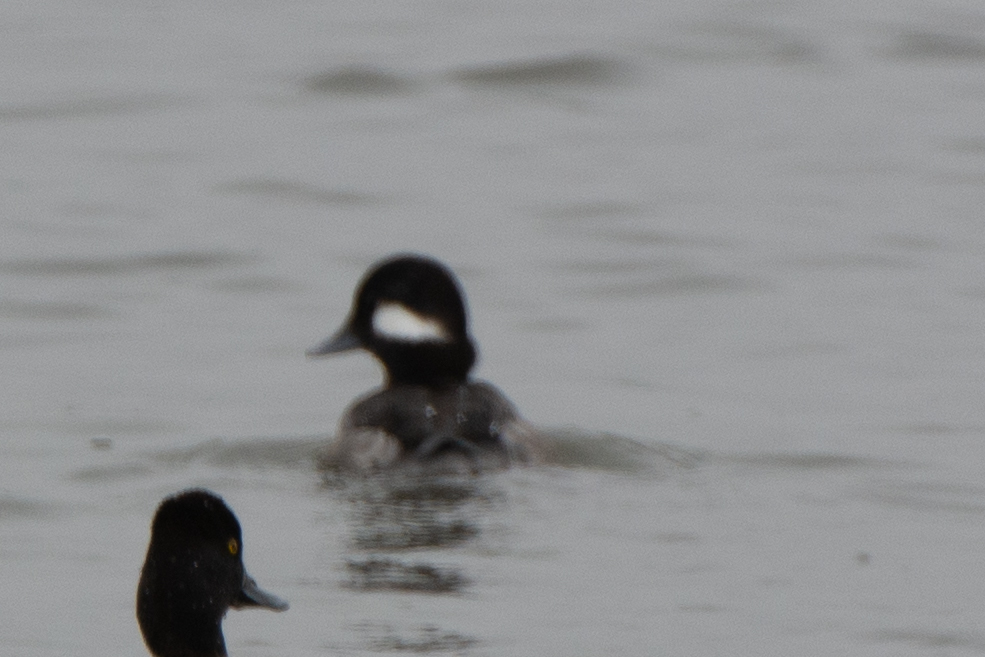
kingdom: Animalia
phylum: Chordata
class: Aves
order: Anseriformes
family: Anatidae
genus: Bucephala
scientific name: Bucephala albeola
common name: Bufflehead
